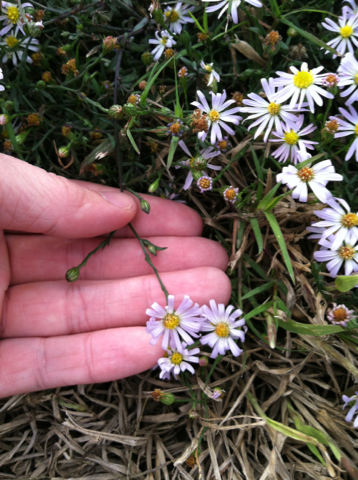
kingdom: Plantae
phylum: Tracheophyta
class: Magnoliopsida
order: Asterales
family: Asteraceae
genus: Symphyotrichum
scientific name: Symphyotrichum divaricatum
